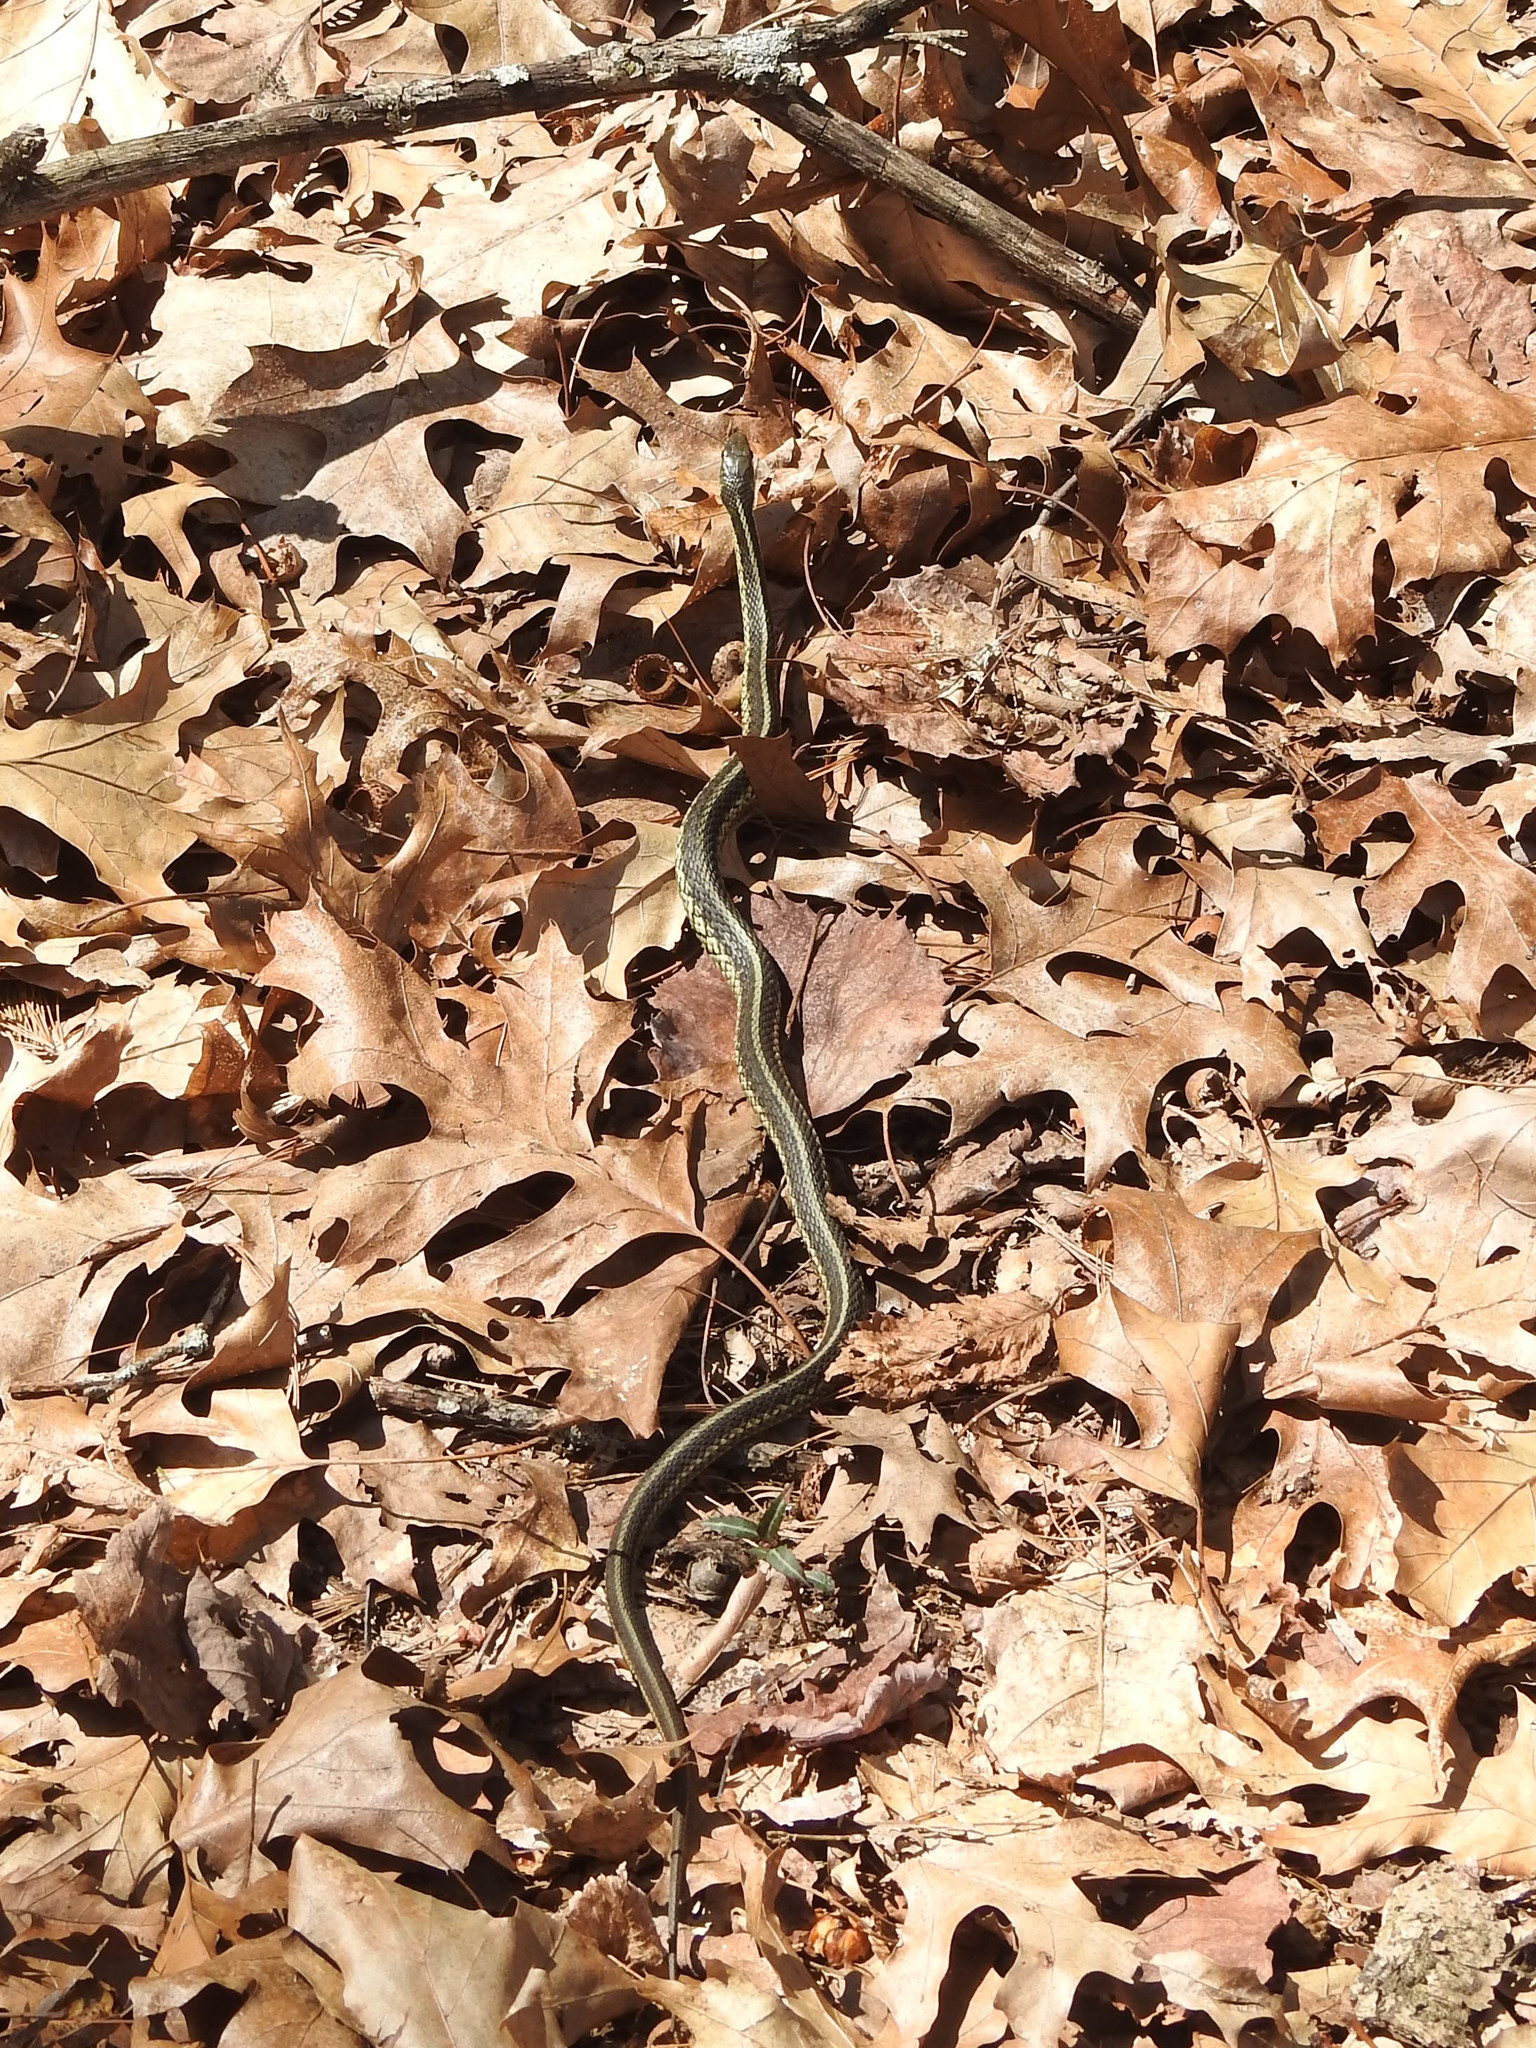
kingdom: Animalia
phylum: Chordata
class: Squamata
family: Colubridae
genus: Thamnophis
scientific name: Thamnophis sirtalis
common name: Common garter snake
